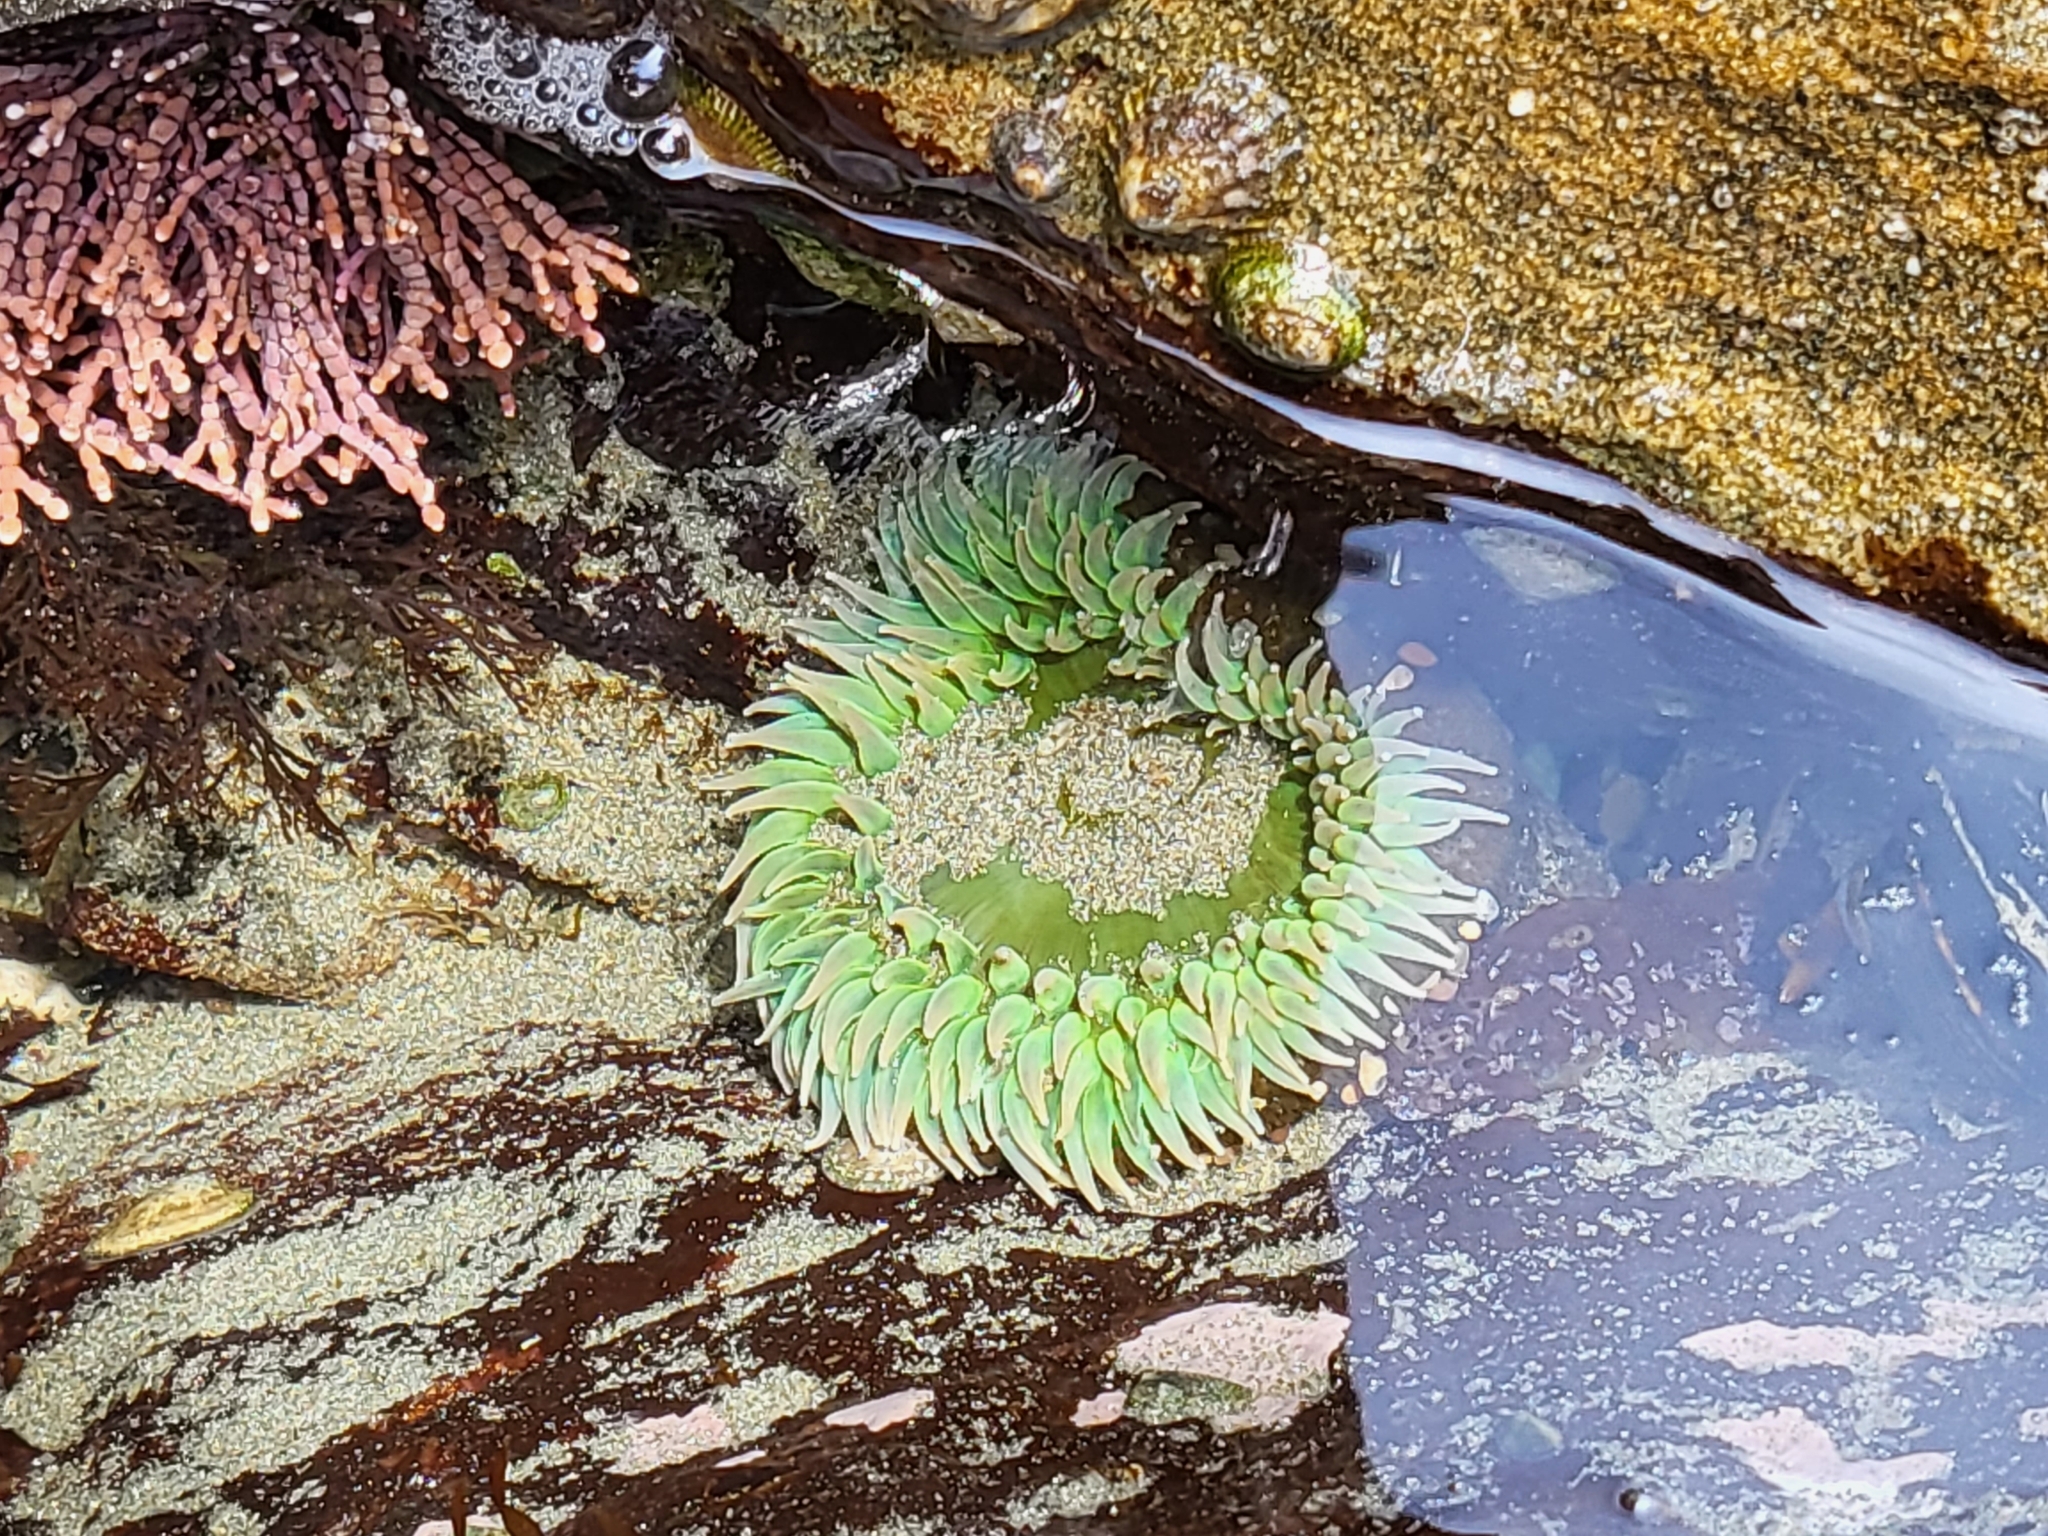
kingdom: Animalia
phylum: Cnidaria
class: Anthozoa
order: Actiniaria
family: Actiniidae
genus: Anthopleura
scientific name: Anthopleura xanthogrammica
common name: Giant green anemone
